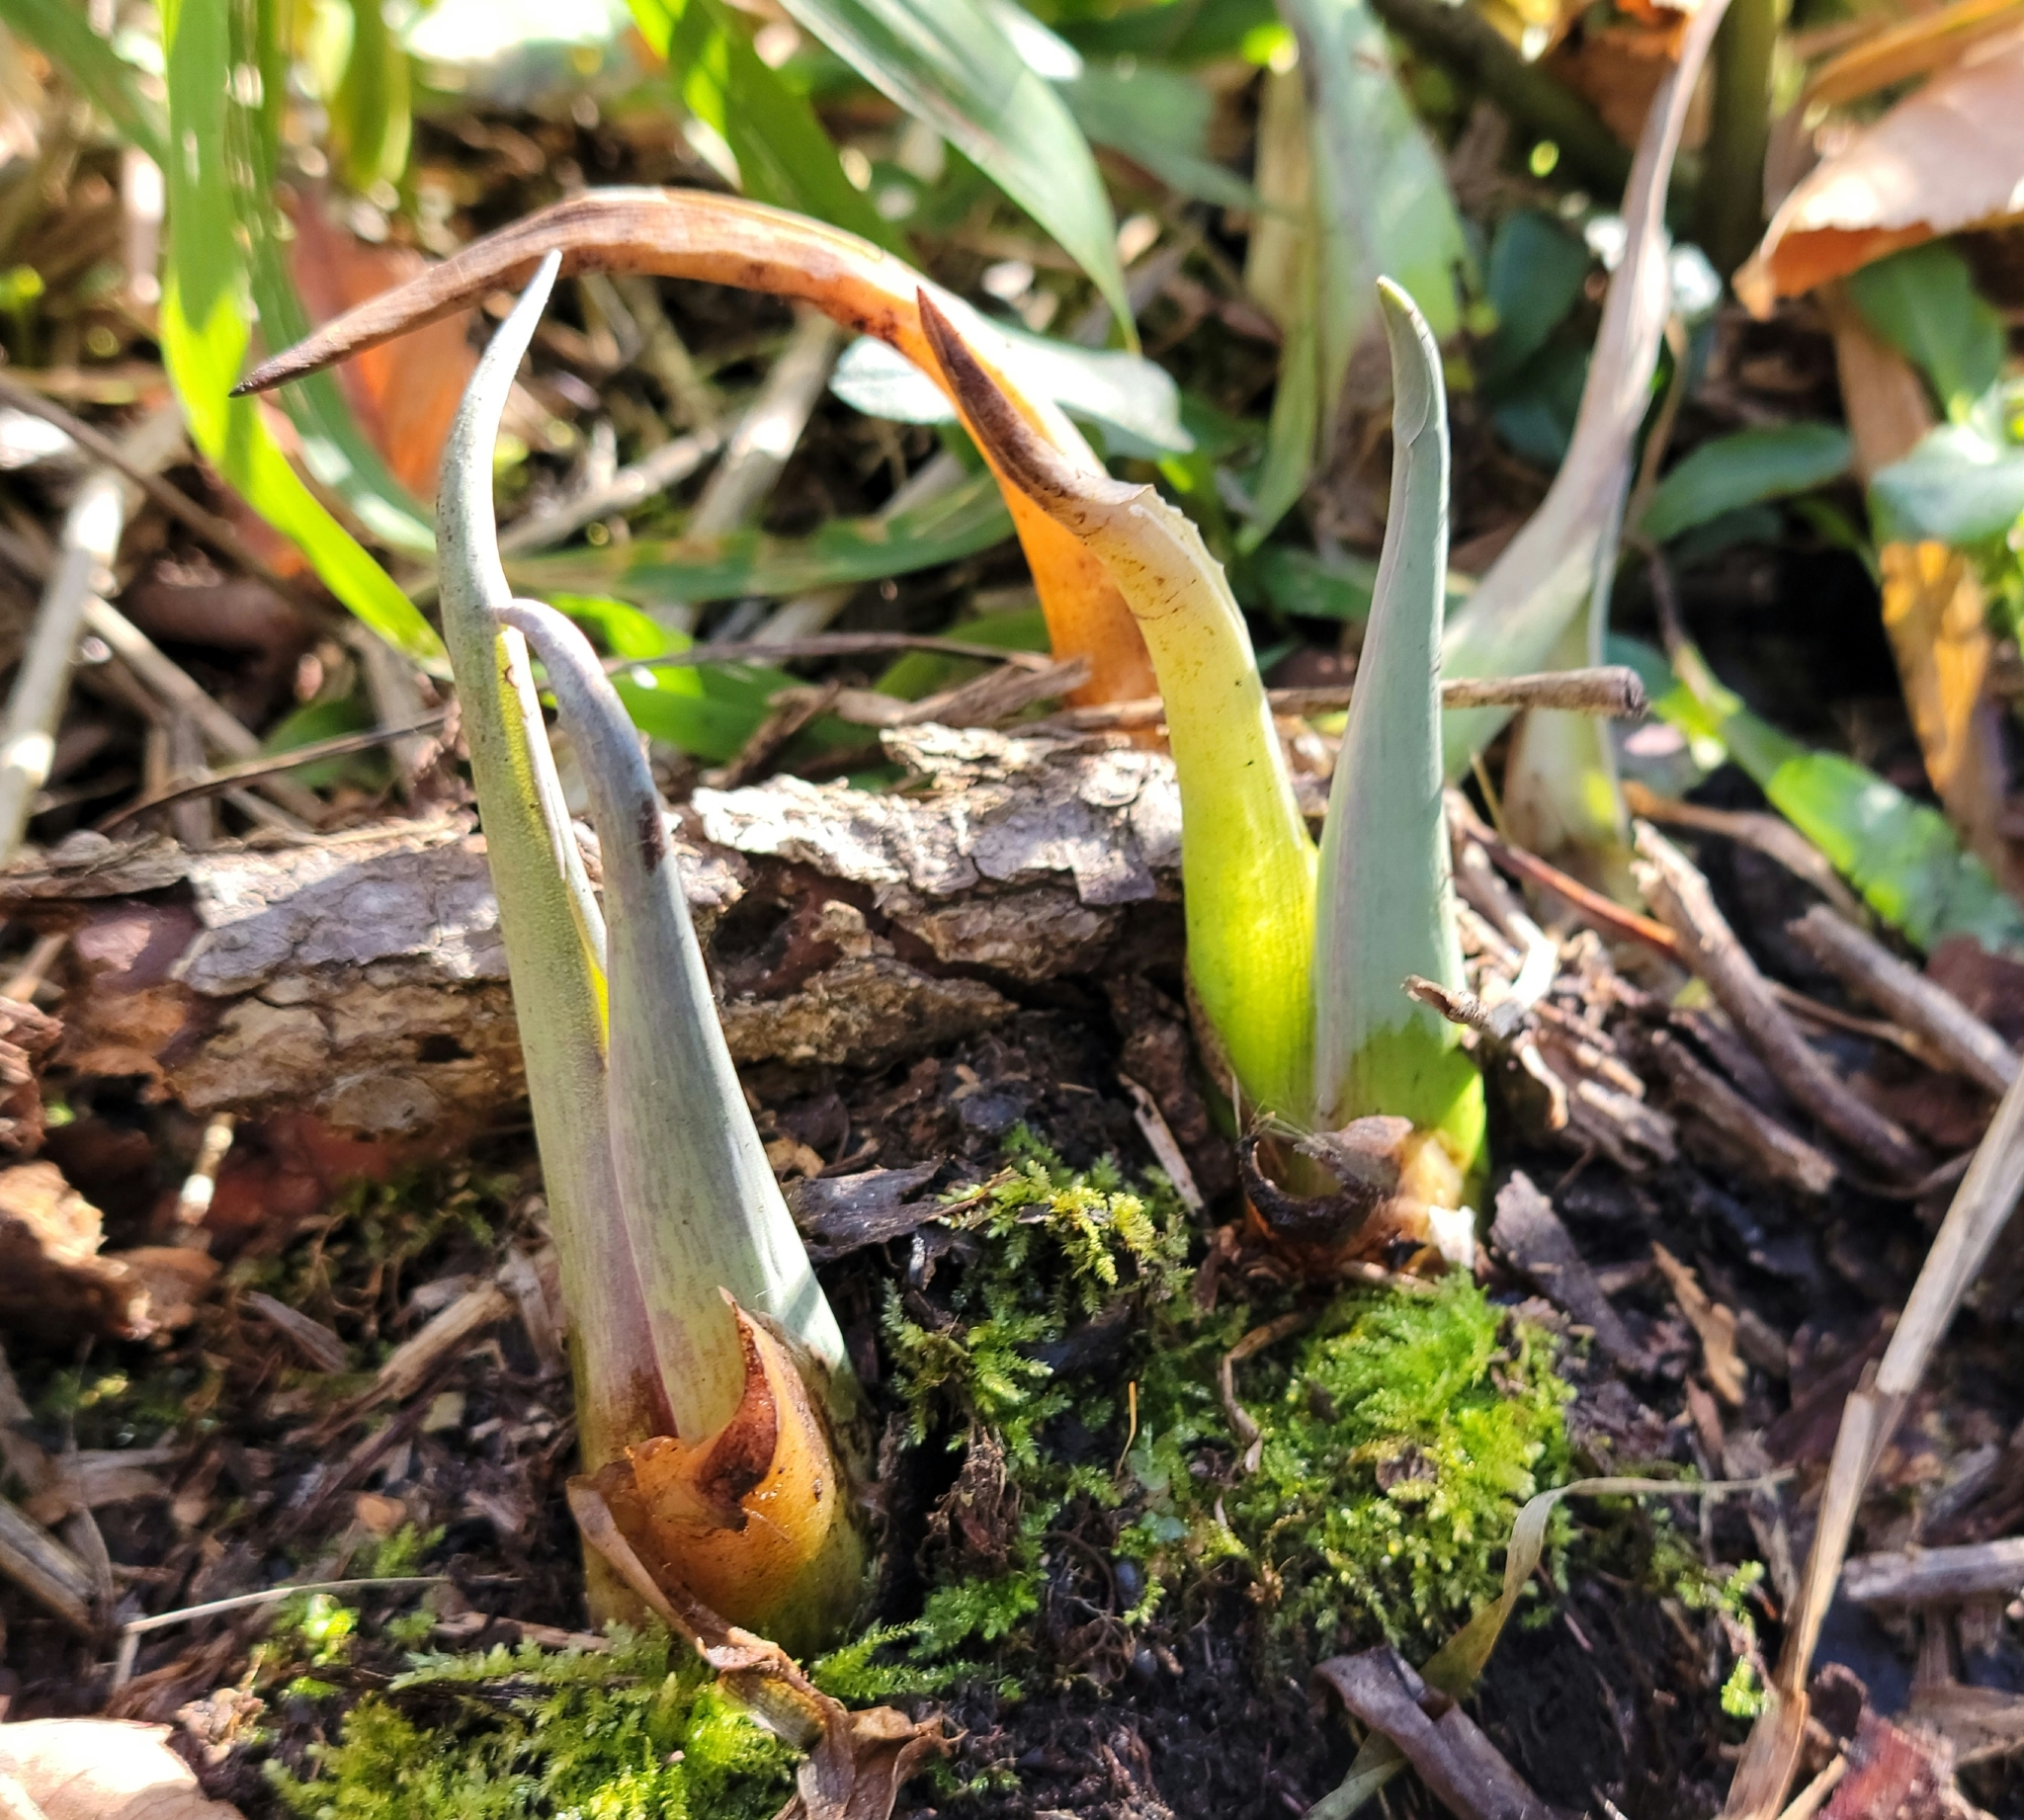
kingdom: Plantae
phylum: Tracheophyta
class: Liliopsida
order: Alismatales
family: Araceae
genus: Symplocarpus
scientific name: Symplocarpus foetidus
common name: Eastern skunk cabbage
